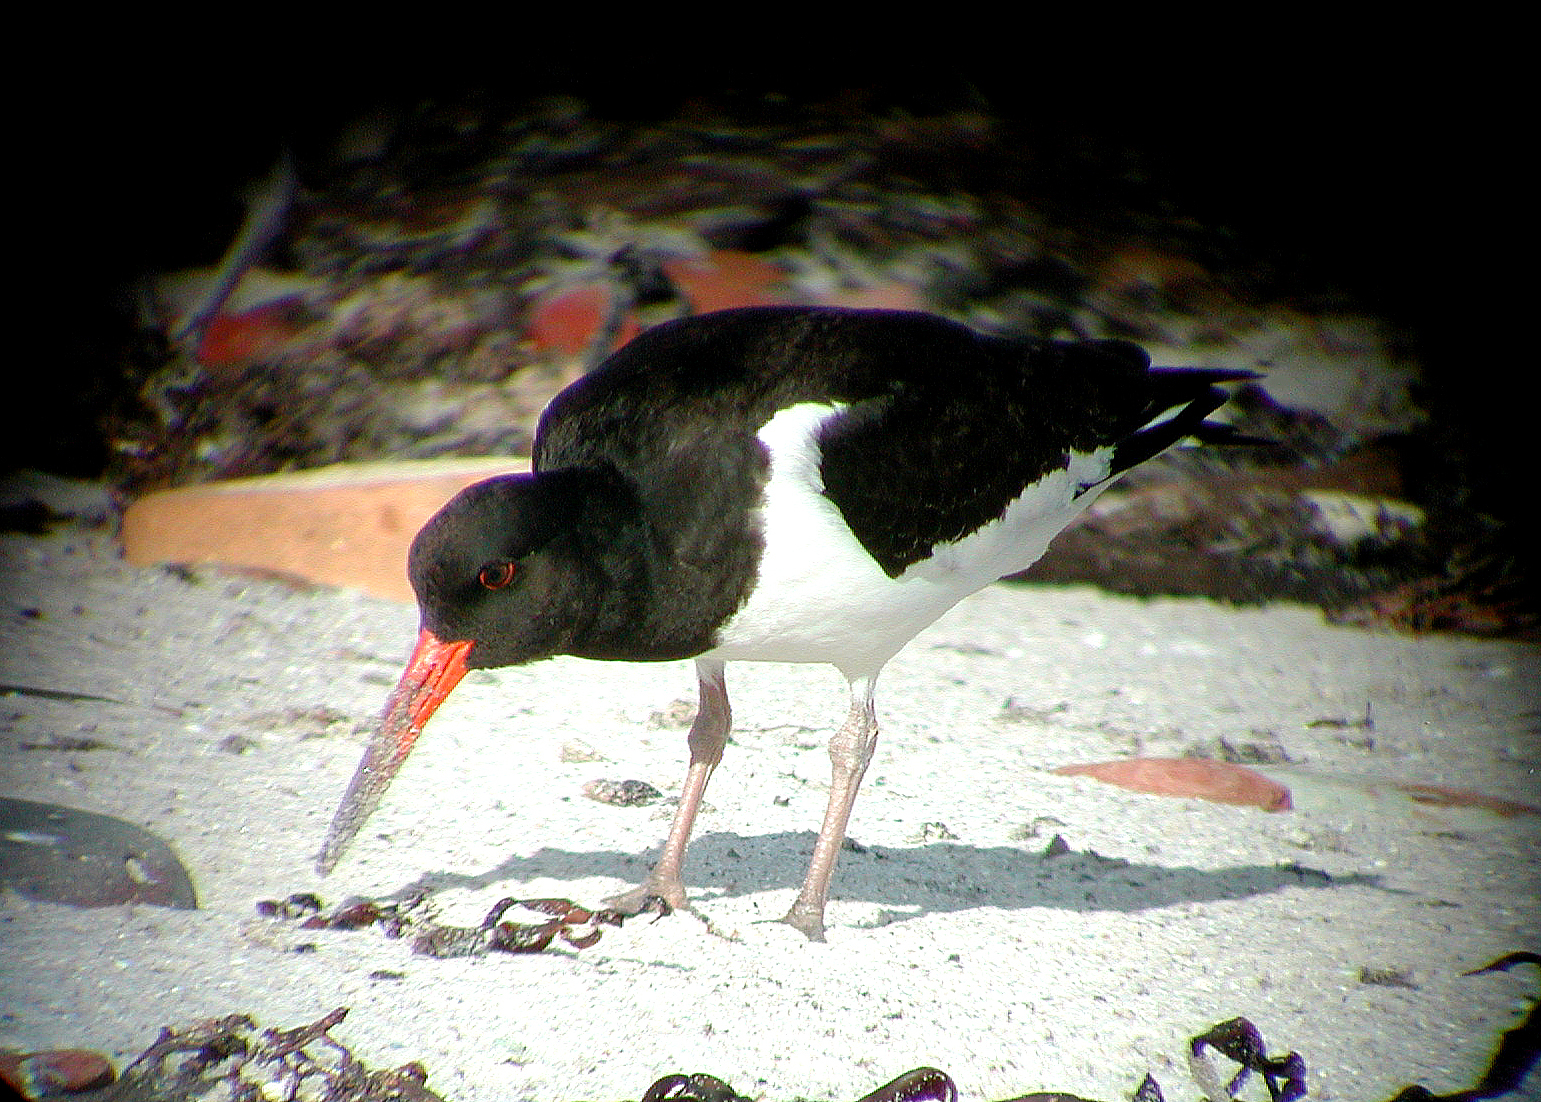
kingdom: Animalia
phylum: Chordata
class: Aves
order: Charadriiformes
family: Haematopodidae
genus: Haematopus
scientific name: Haematopus ostralegus
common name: Eurasian oystercatcher
